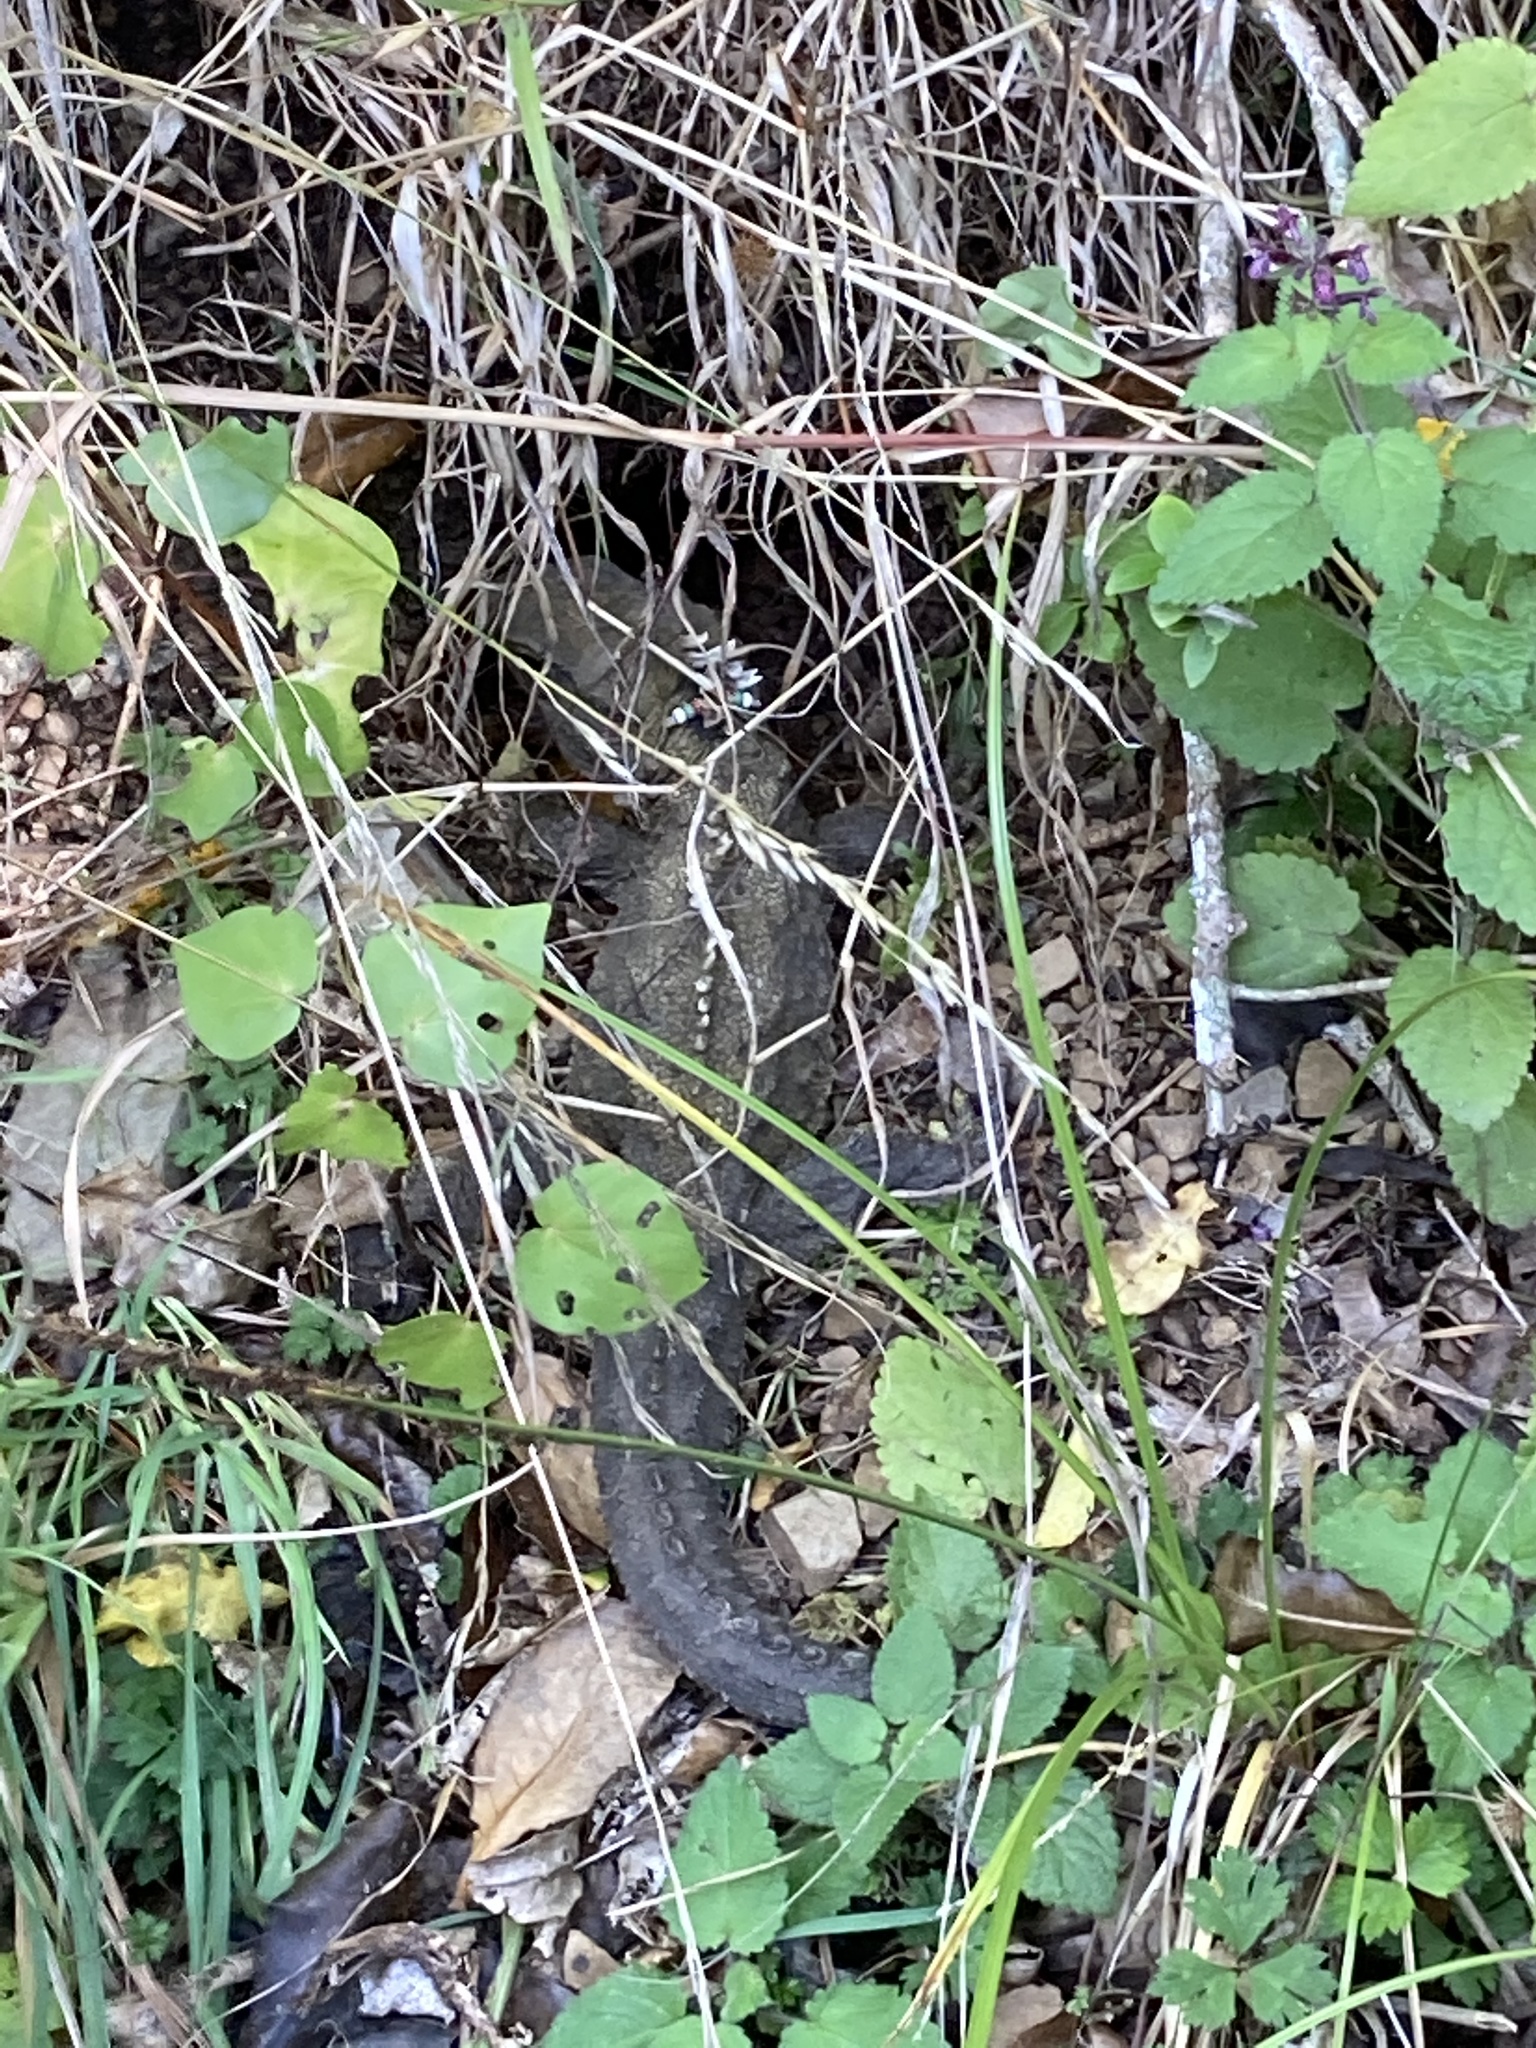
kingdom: Animalia
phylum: Chordata
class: Sphenodontia
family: Sphenodontidae
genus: Sphenodon
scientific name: Sphenodon punctatus
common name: Tuatara
